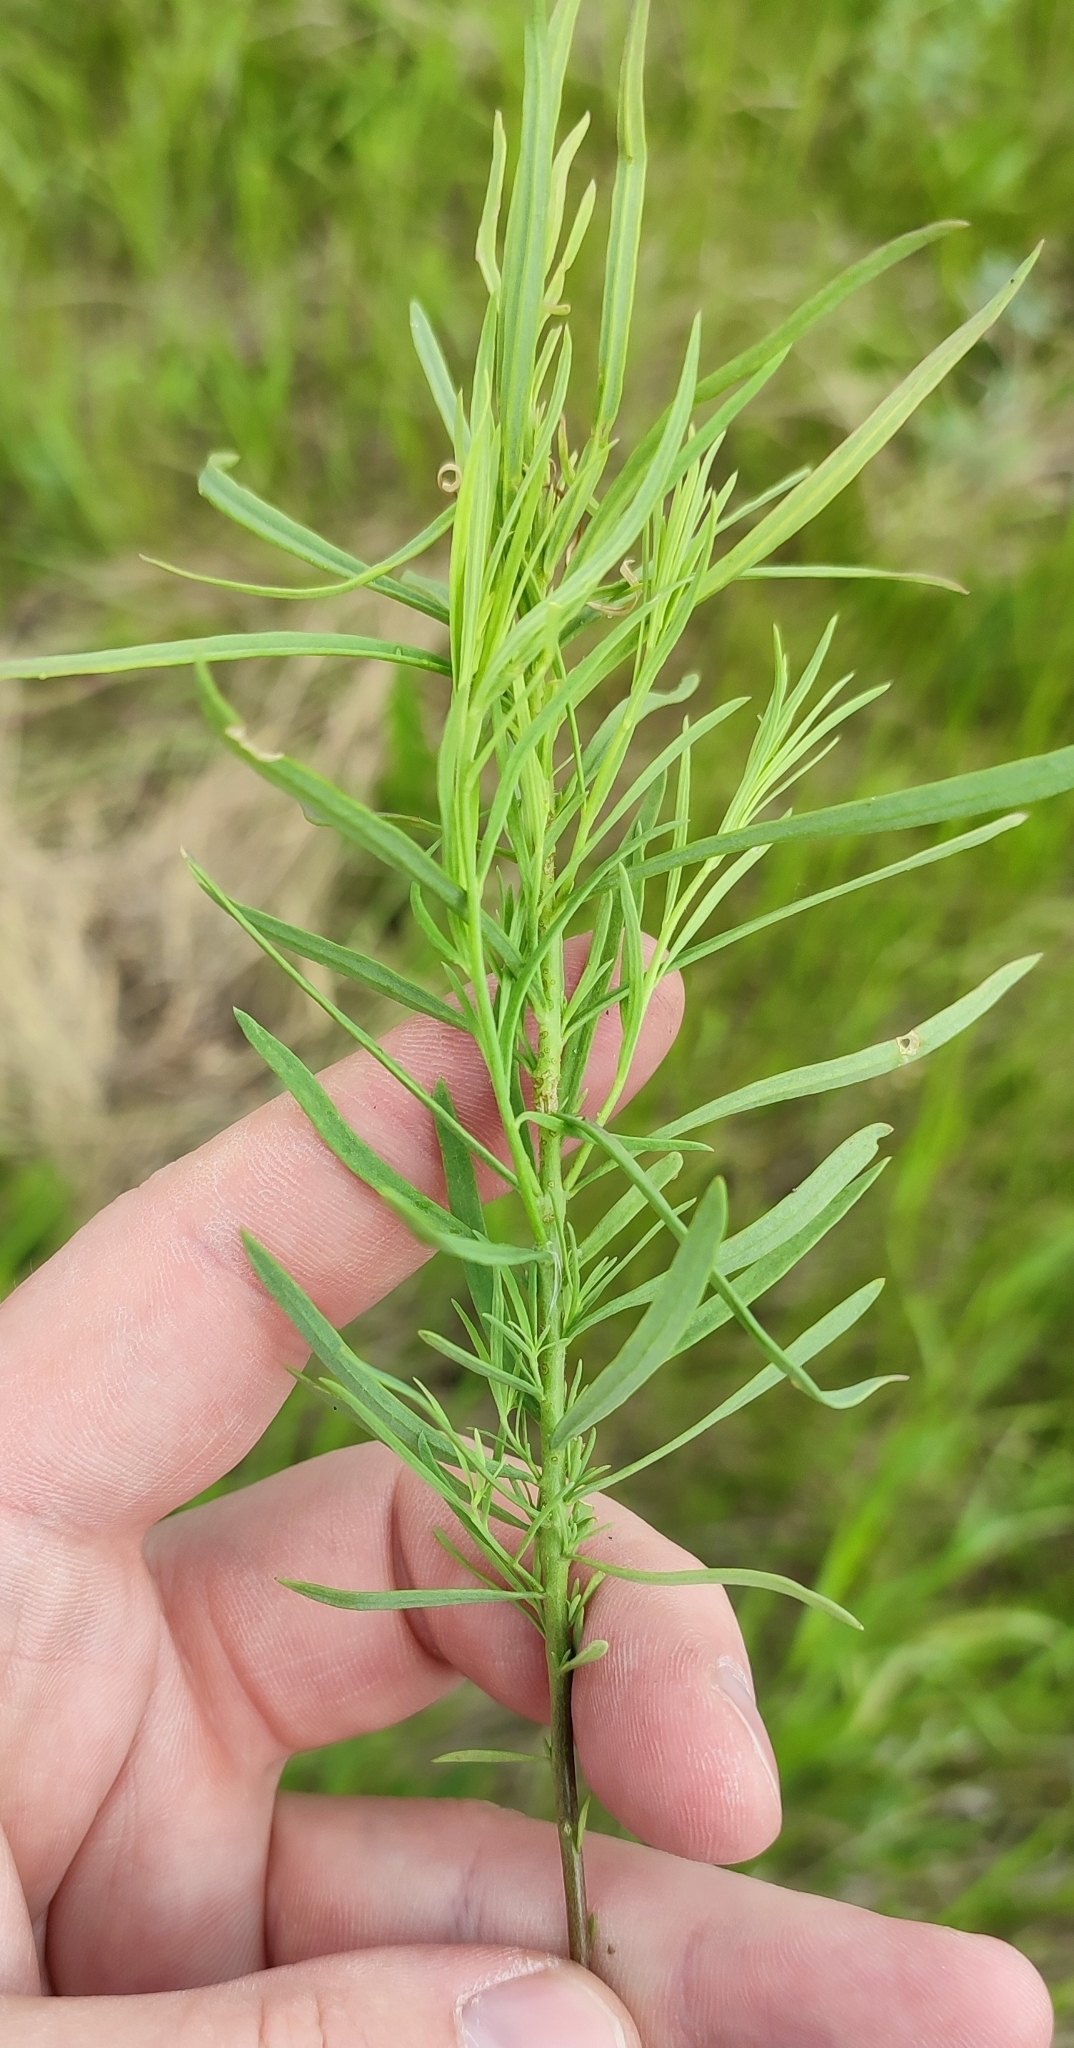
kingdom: Plantae
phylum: Tracheophyta
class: Magnoliopsida
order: Lamiales
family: Plantaginaceae
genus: Linaria
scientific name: Linaria vulgaris
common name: Butter and eggs
